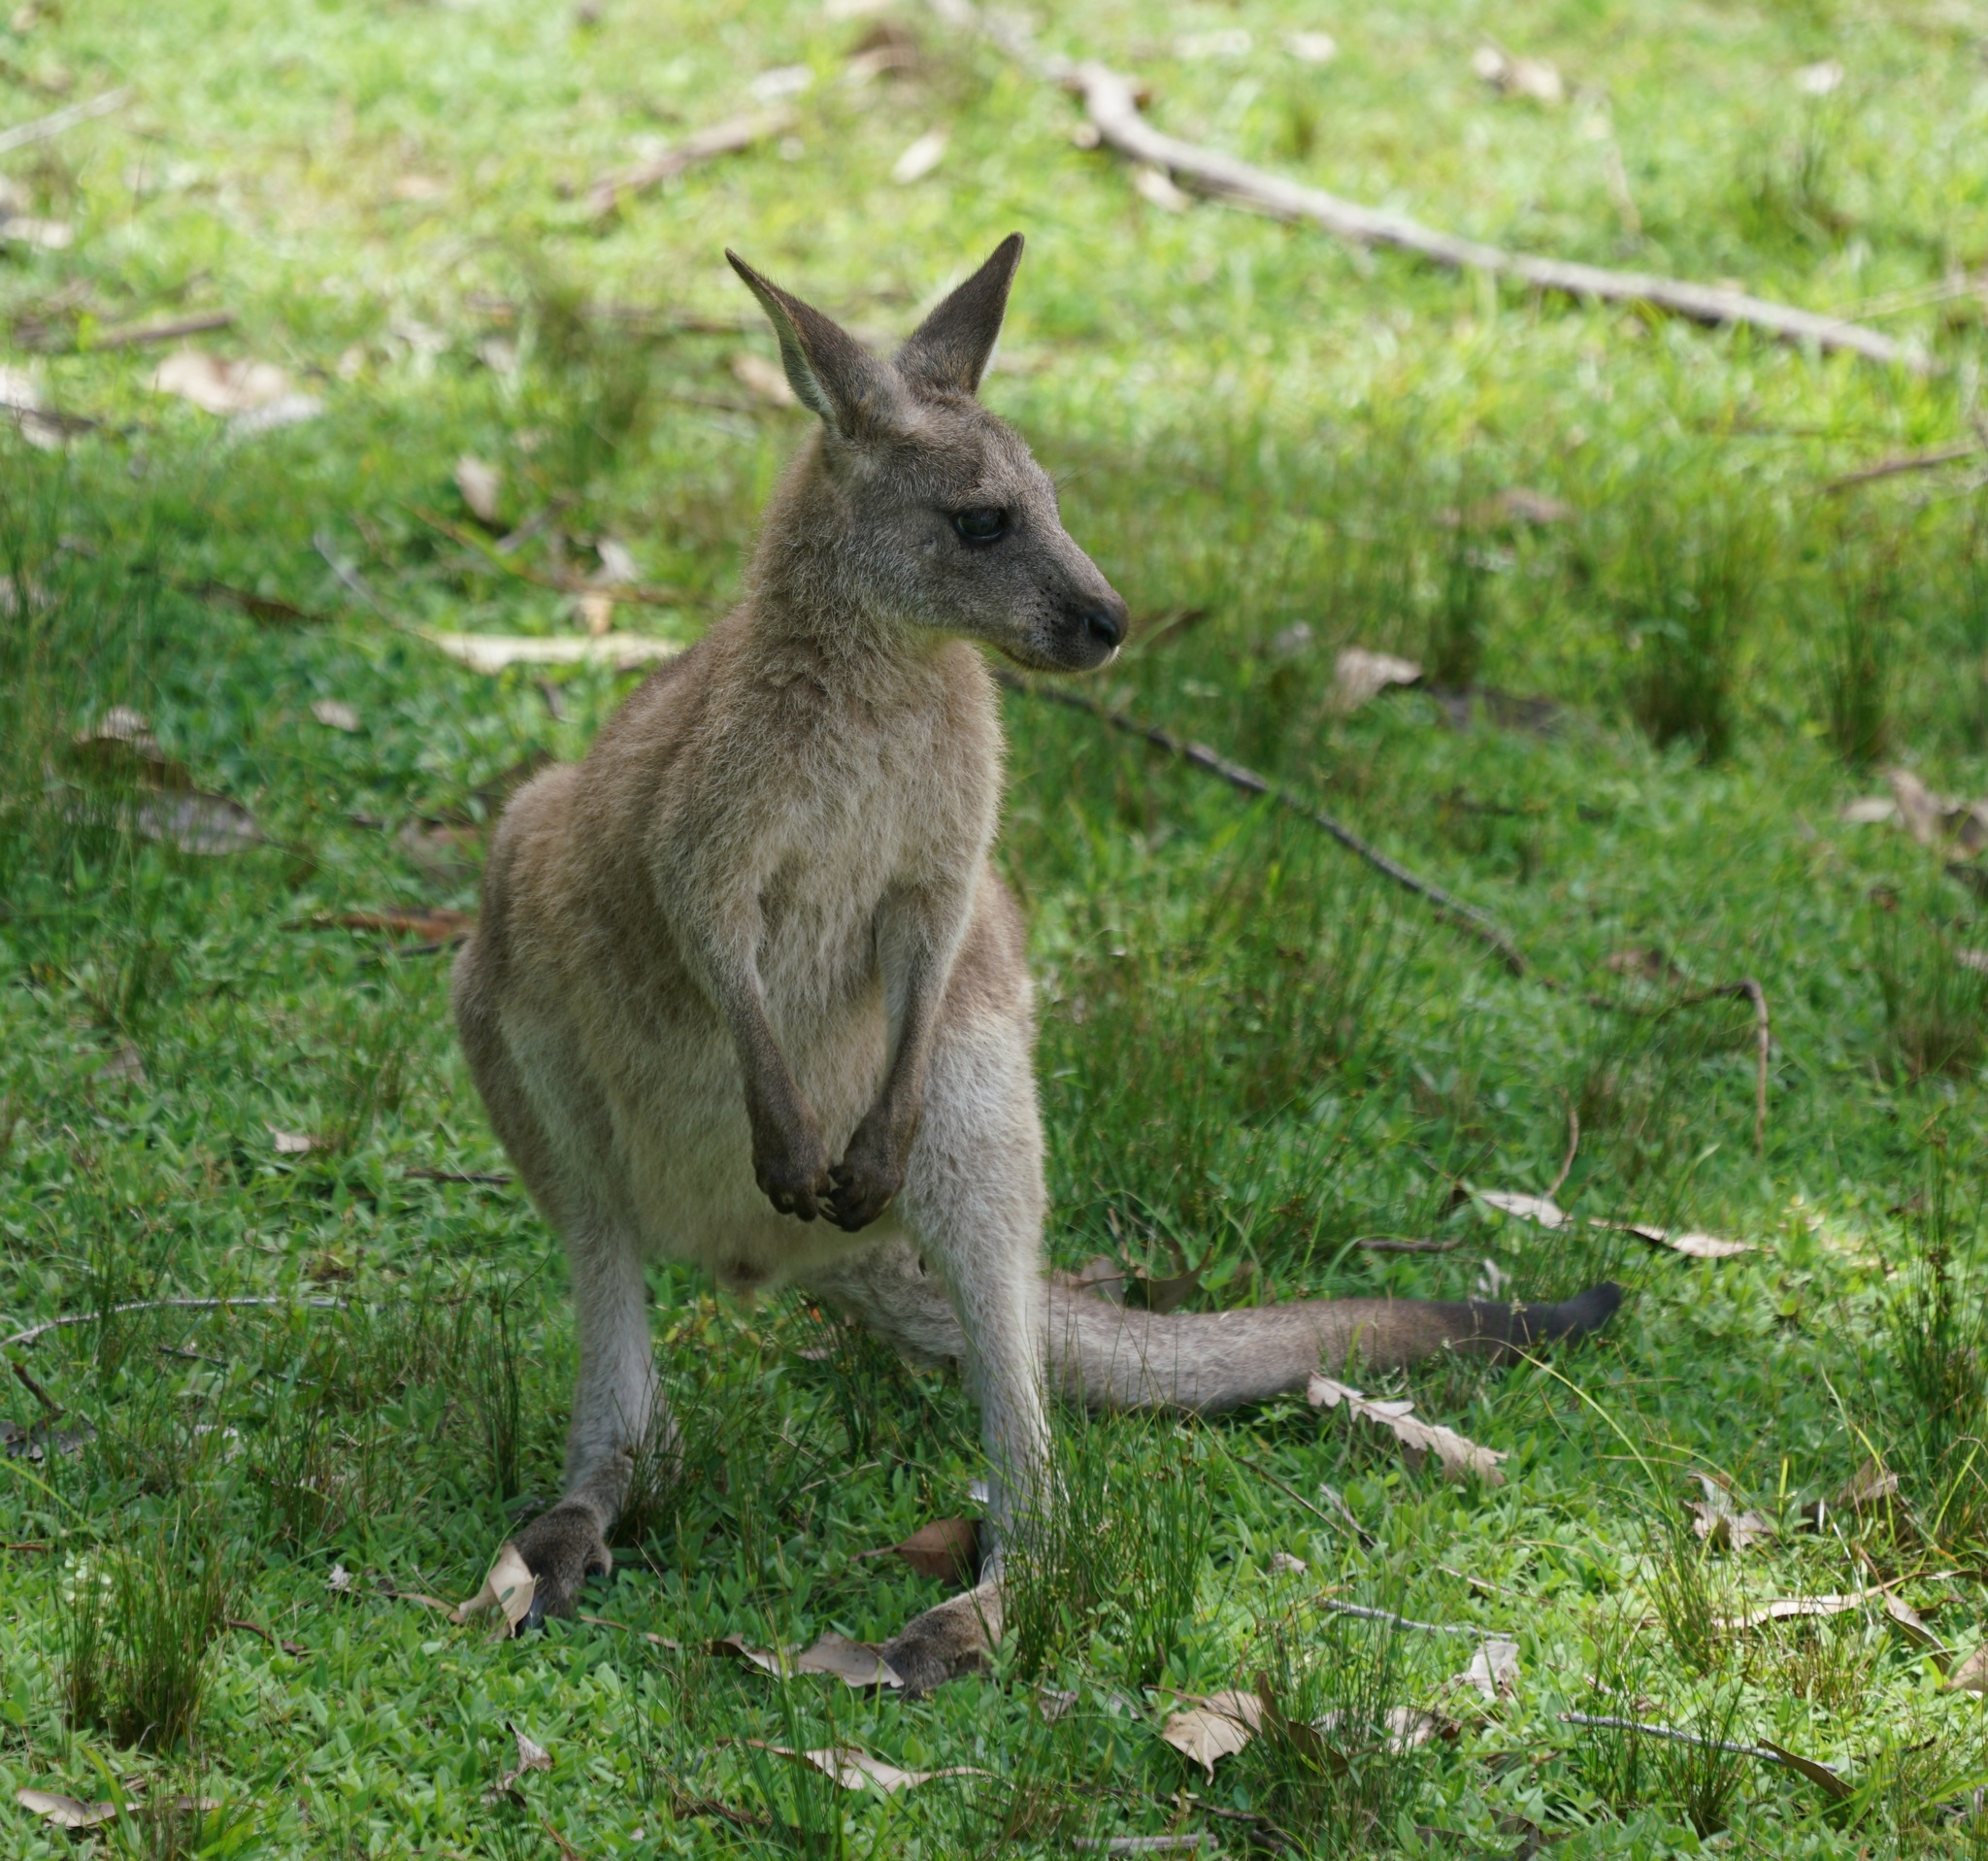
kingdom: Animalia
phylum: Chordata
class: Mammalia
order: Diprotodontia
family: Macropodidae
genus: Macropus
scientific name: Macropus giganteus
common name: Eastern grey kangaroo
